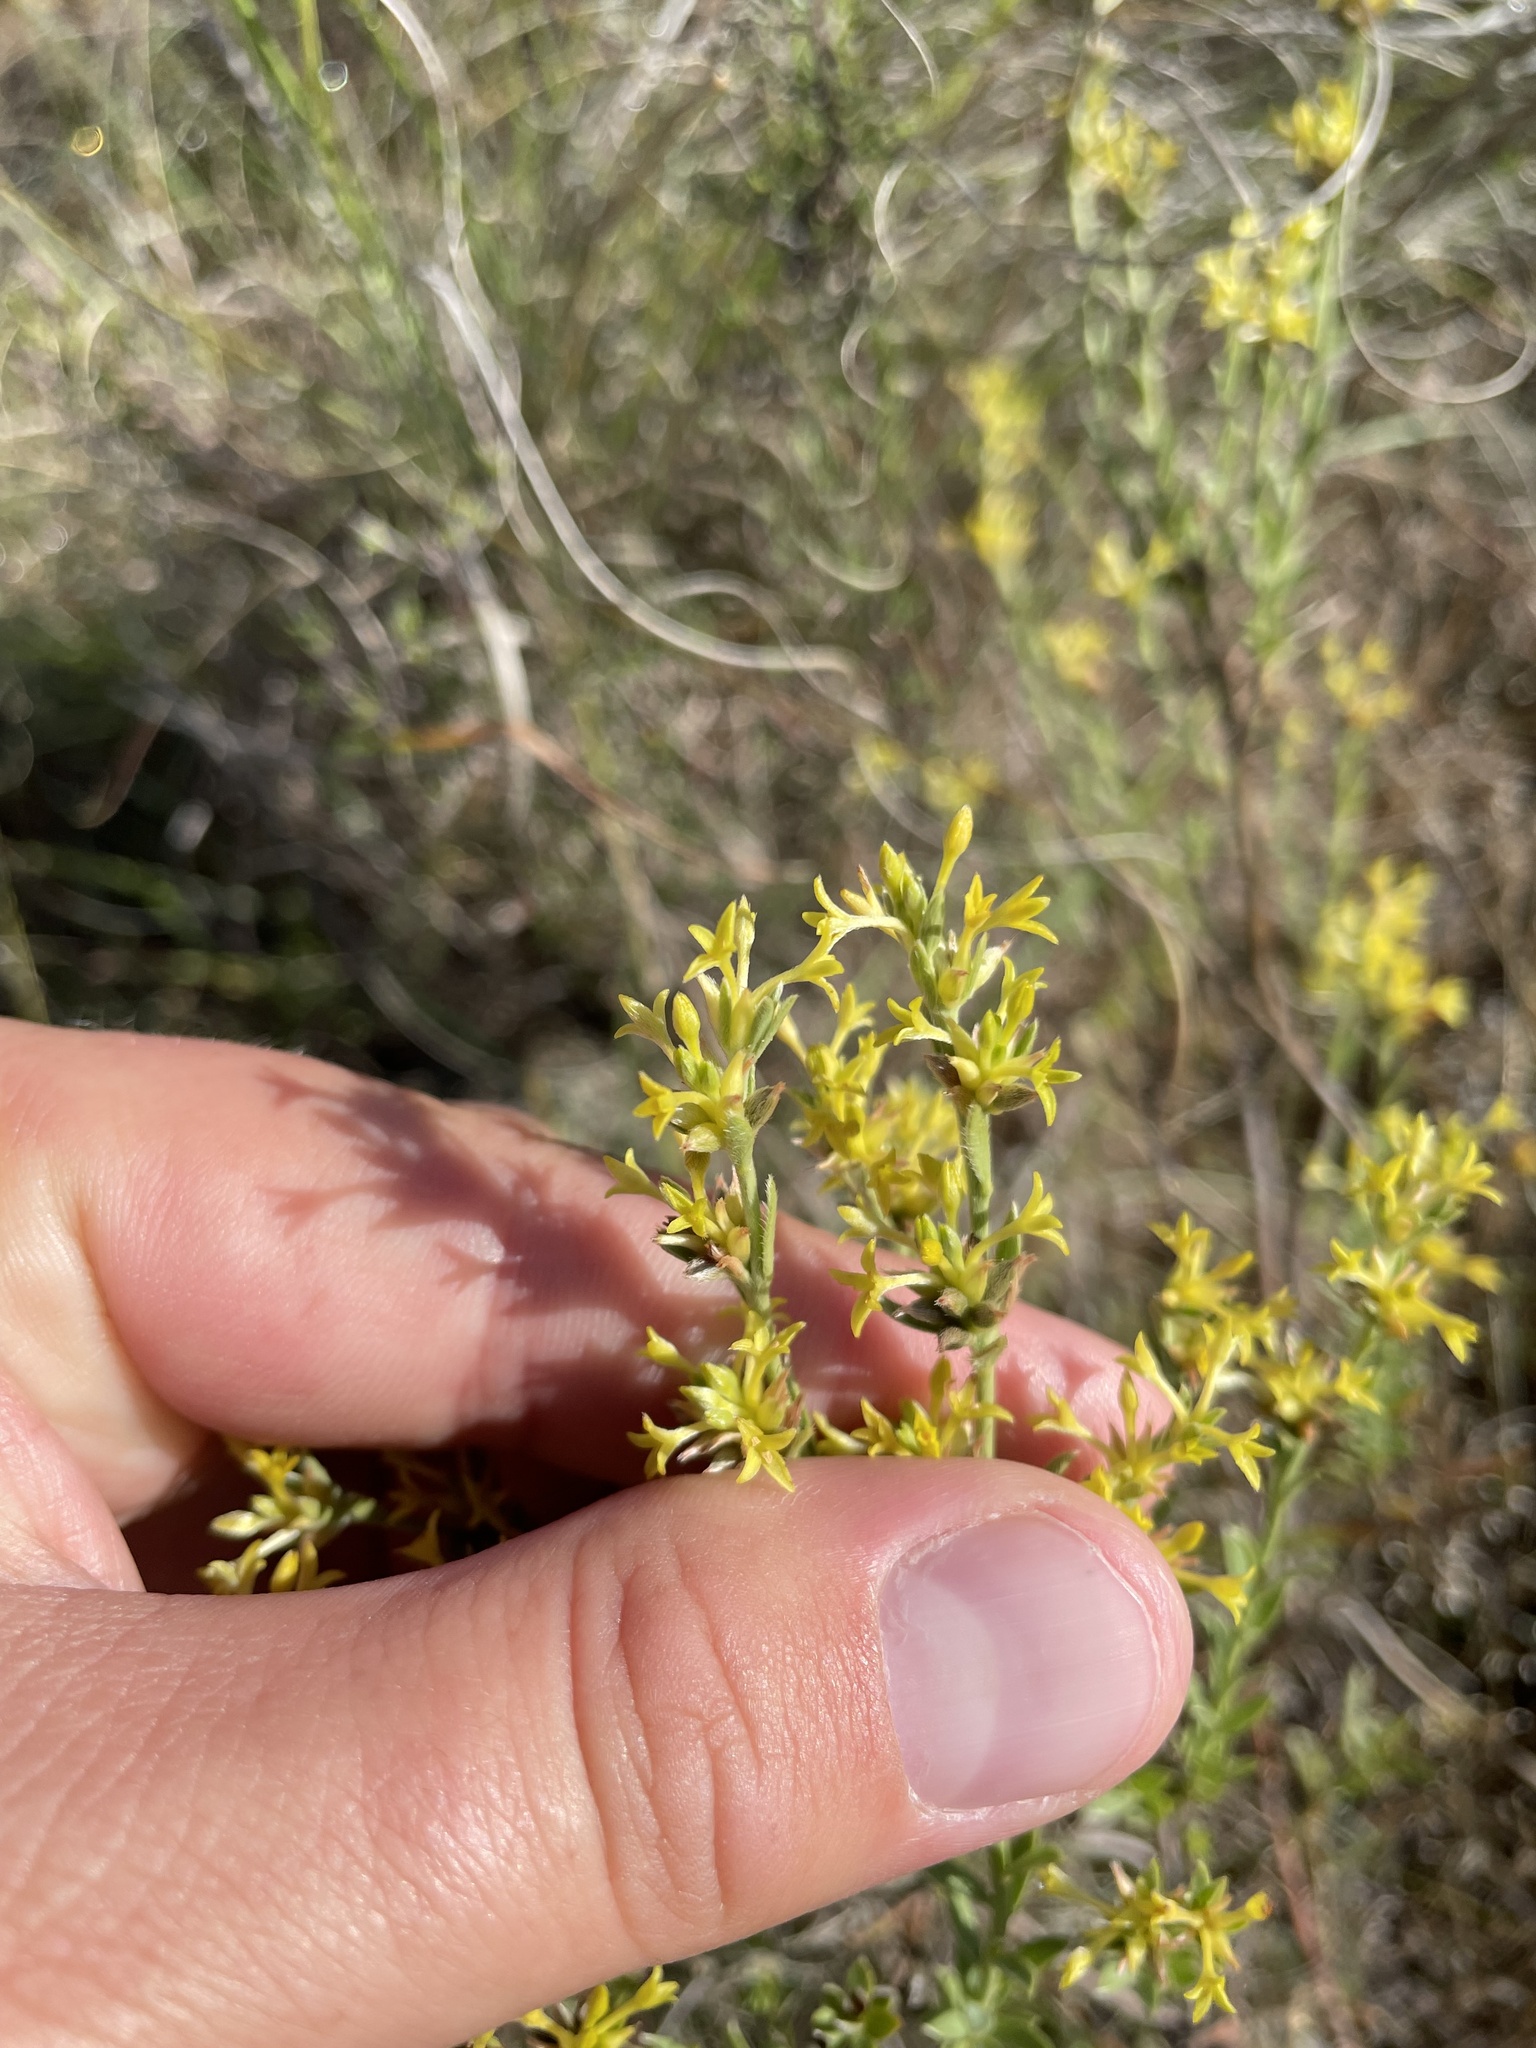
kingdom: Plantae
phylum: Tracheophyta
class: Magnoliopsida
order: Malvales
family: Thymelaeaceae
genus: Pimelea
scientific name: Pimelea curviflora
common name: Curved riceflower
